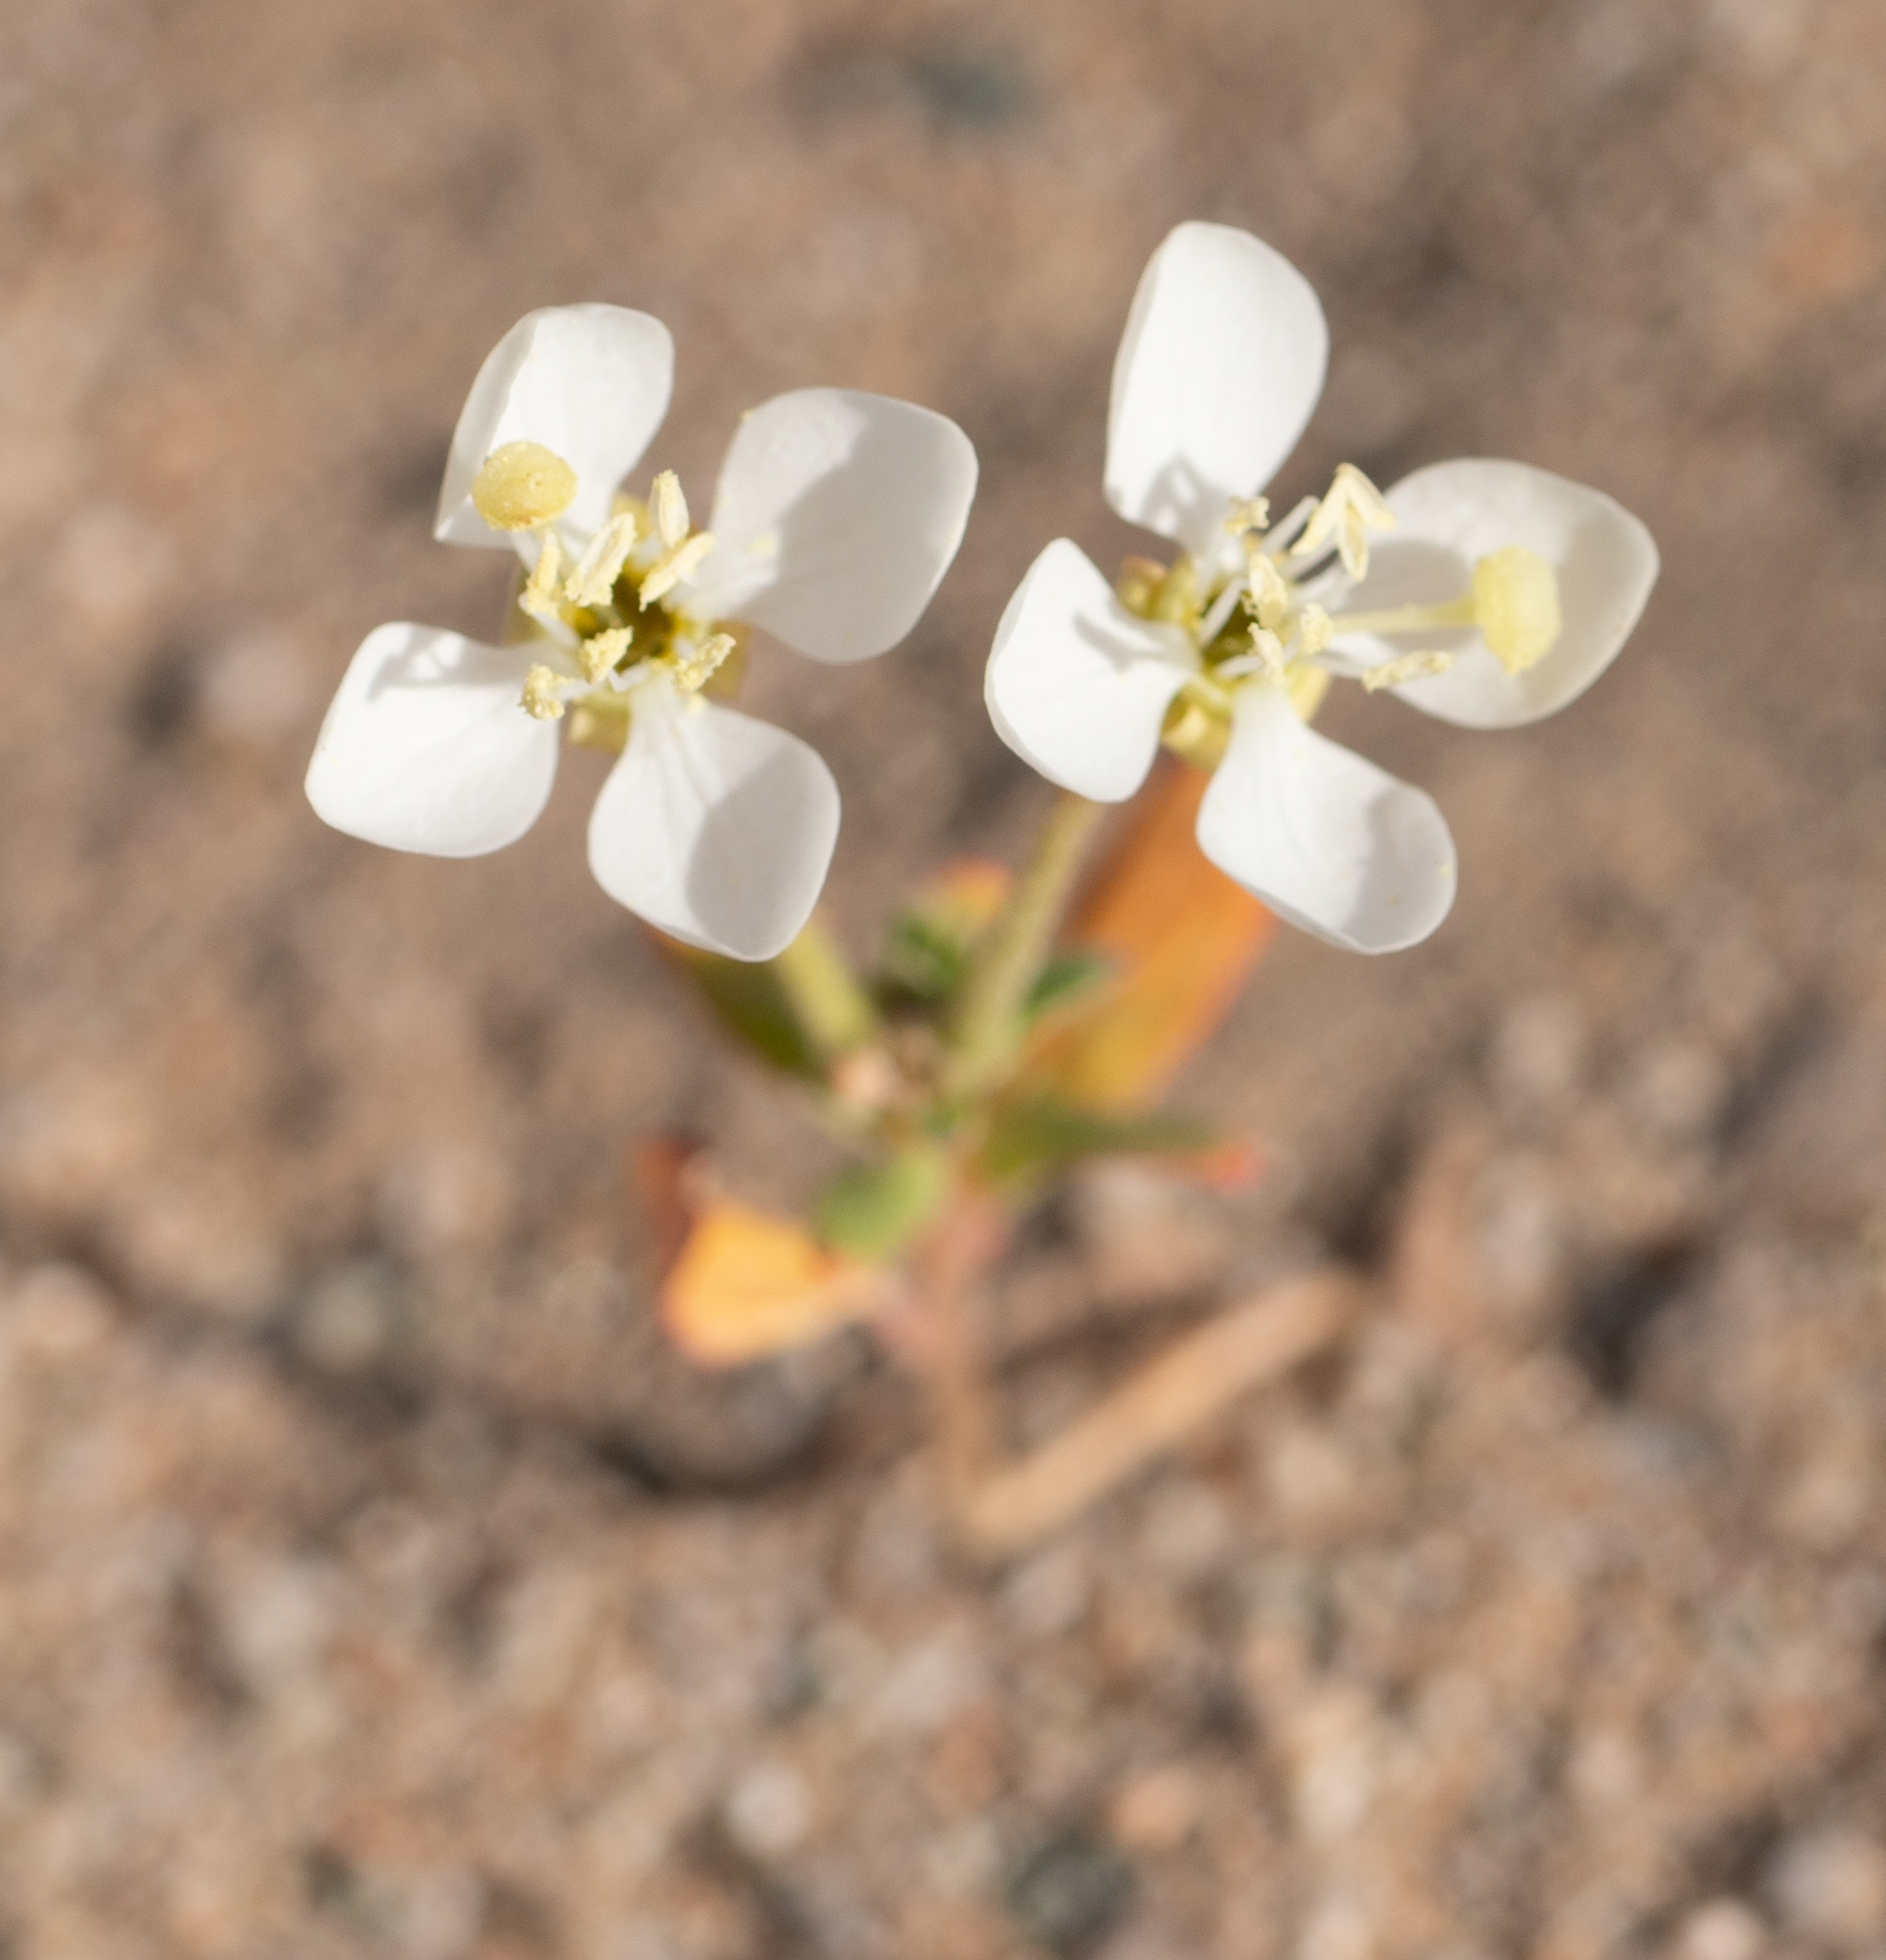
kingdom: Plantae
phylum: Tracheophyta
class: Magnoliopsida
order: Myrtales
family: Onagraceae
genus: Eremothera
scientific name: Eremothera boothii
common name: Booth's evening primrose
